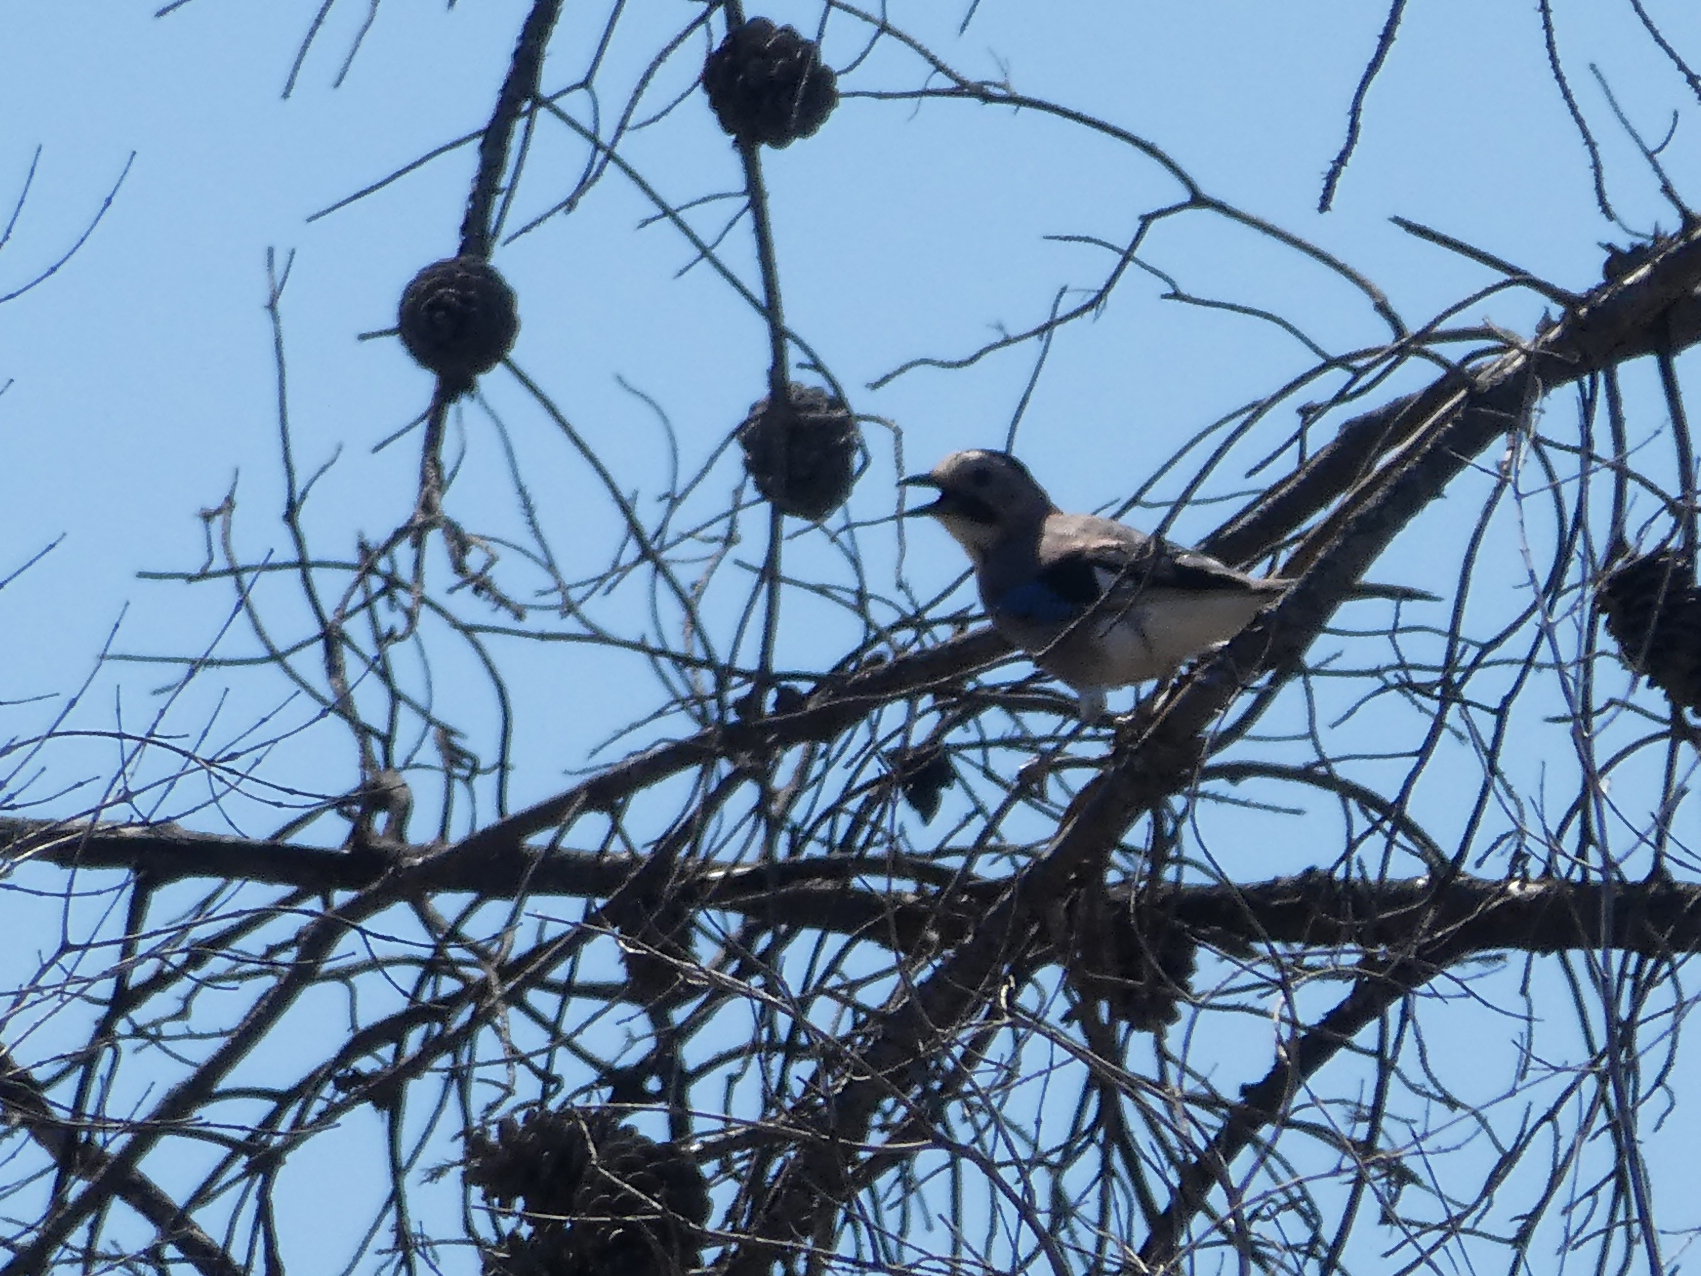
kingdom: Animalia
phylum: Chordata
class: Aves
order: Passeriformes
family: Corvidae
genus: Garrulus
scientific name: Garrulus glandarius
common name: Eurasian jay
